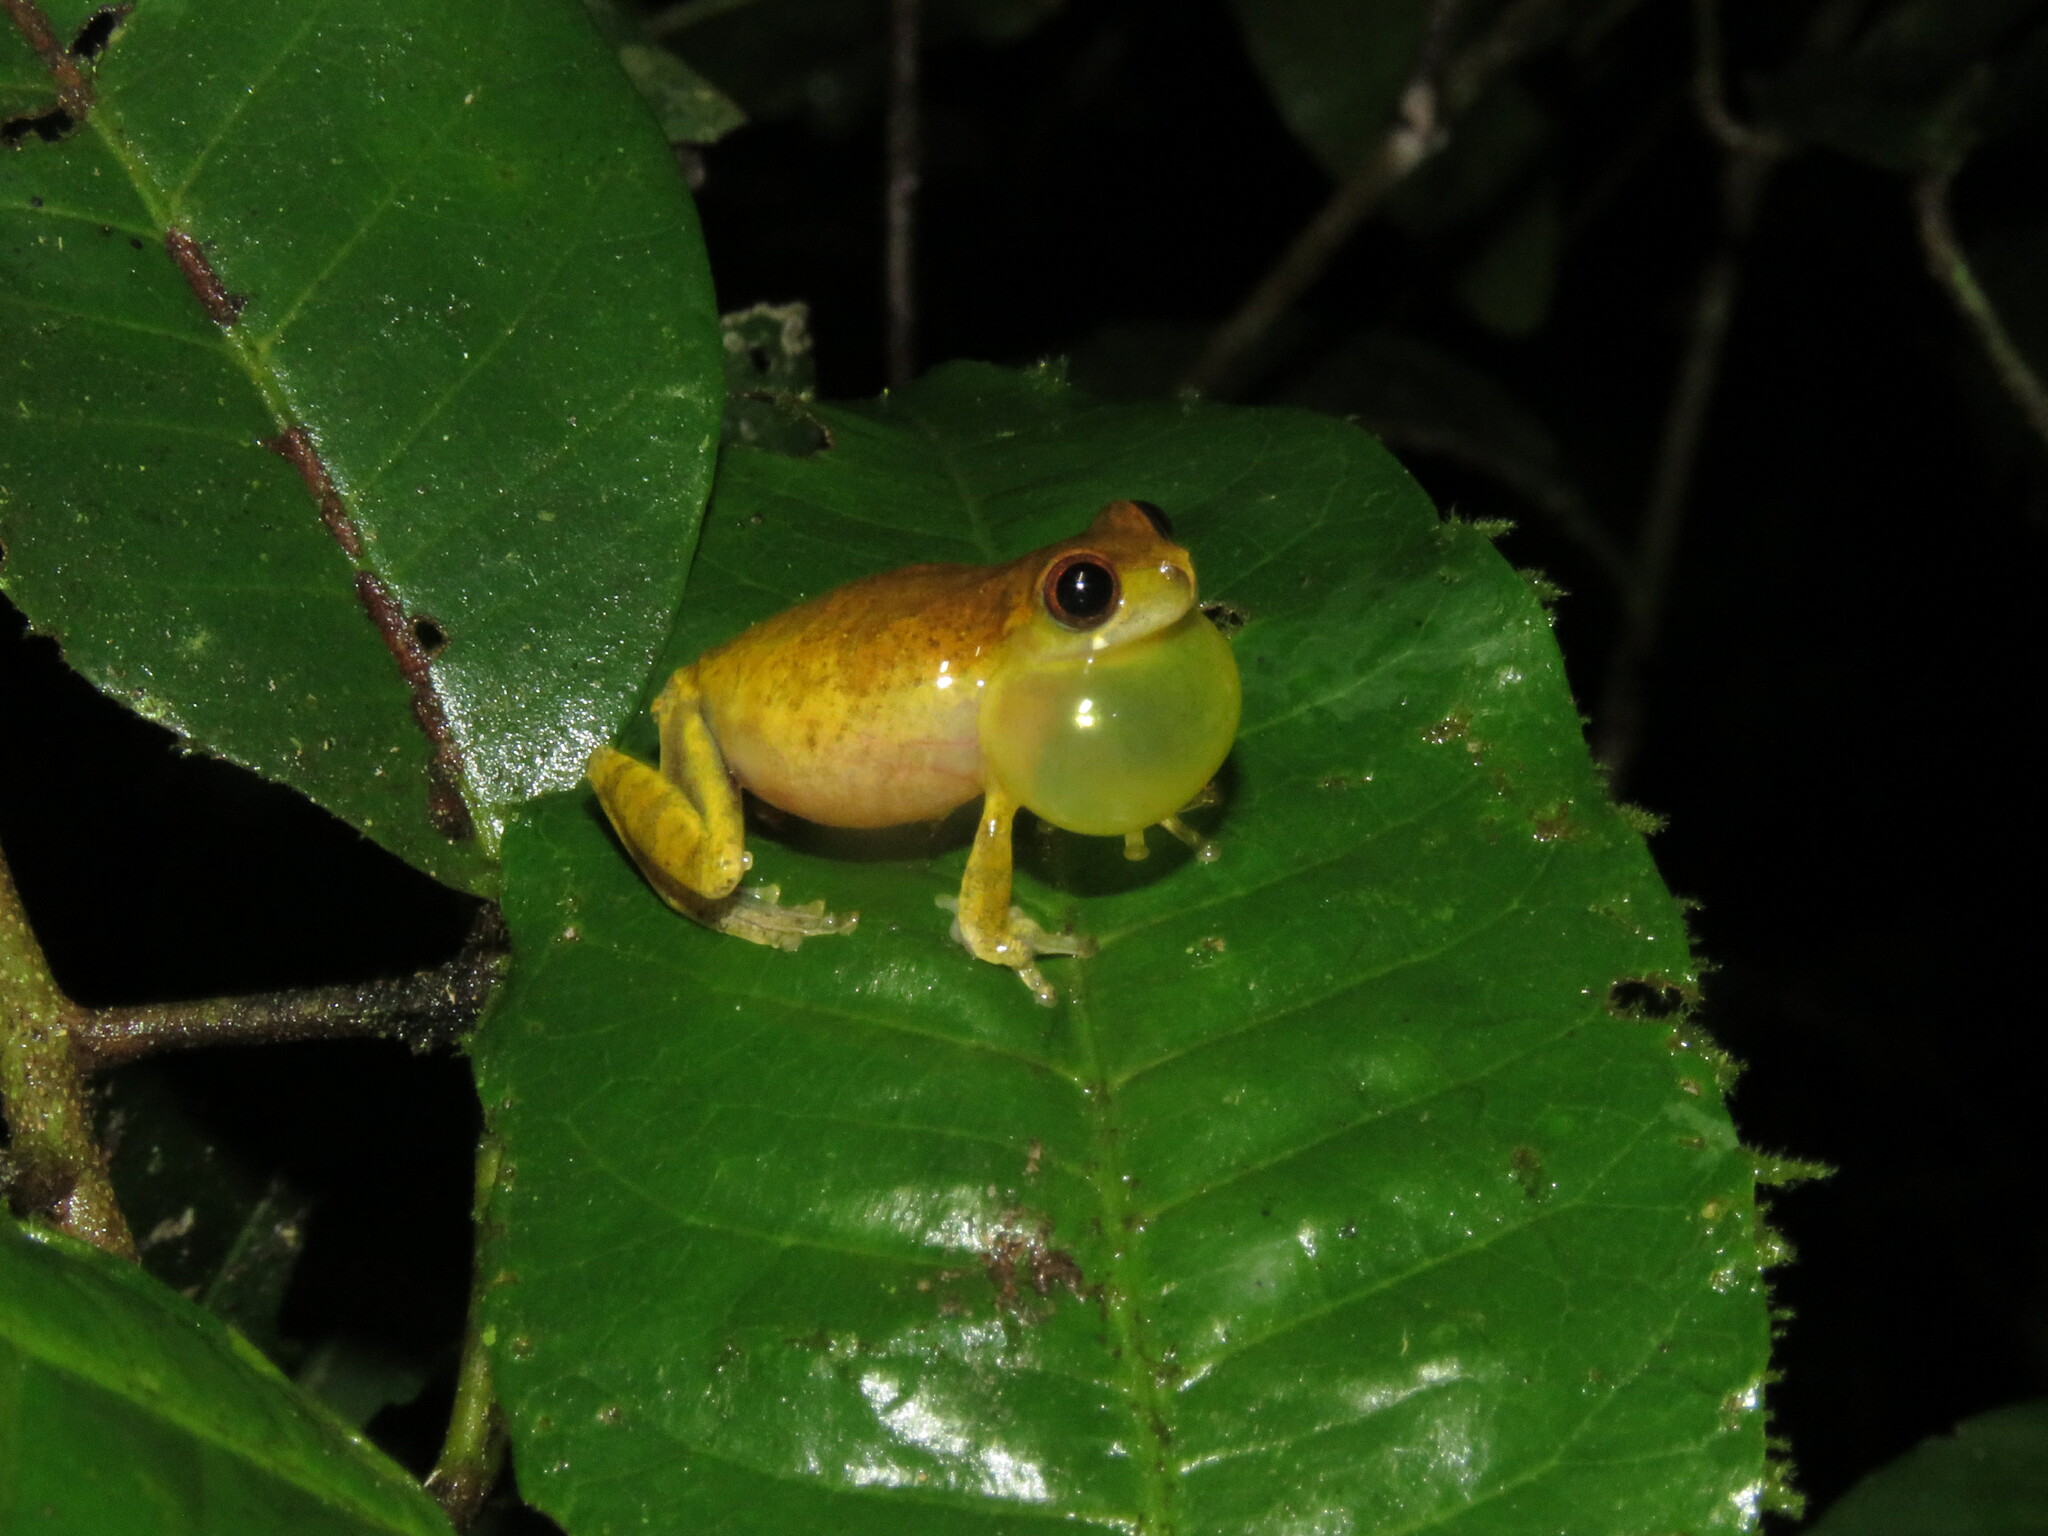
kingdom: Animalia
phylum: Chordata
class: Amphibia
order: Anura
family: Hylidae
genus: Dendropsophus
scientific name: Dendropsophus minutus
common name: Lesser treefrog
